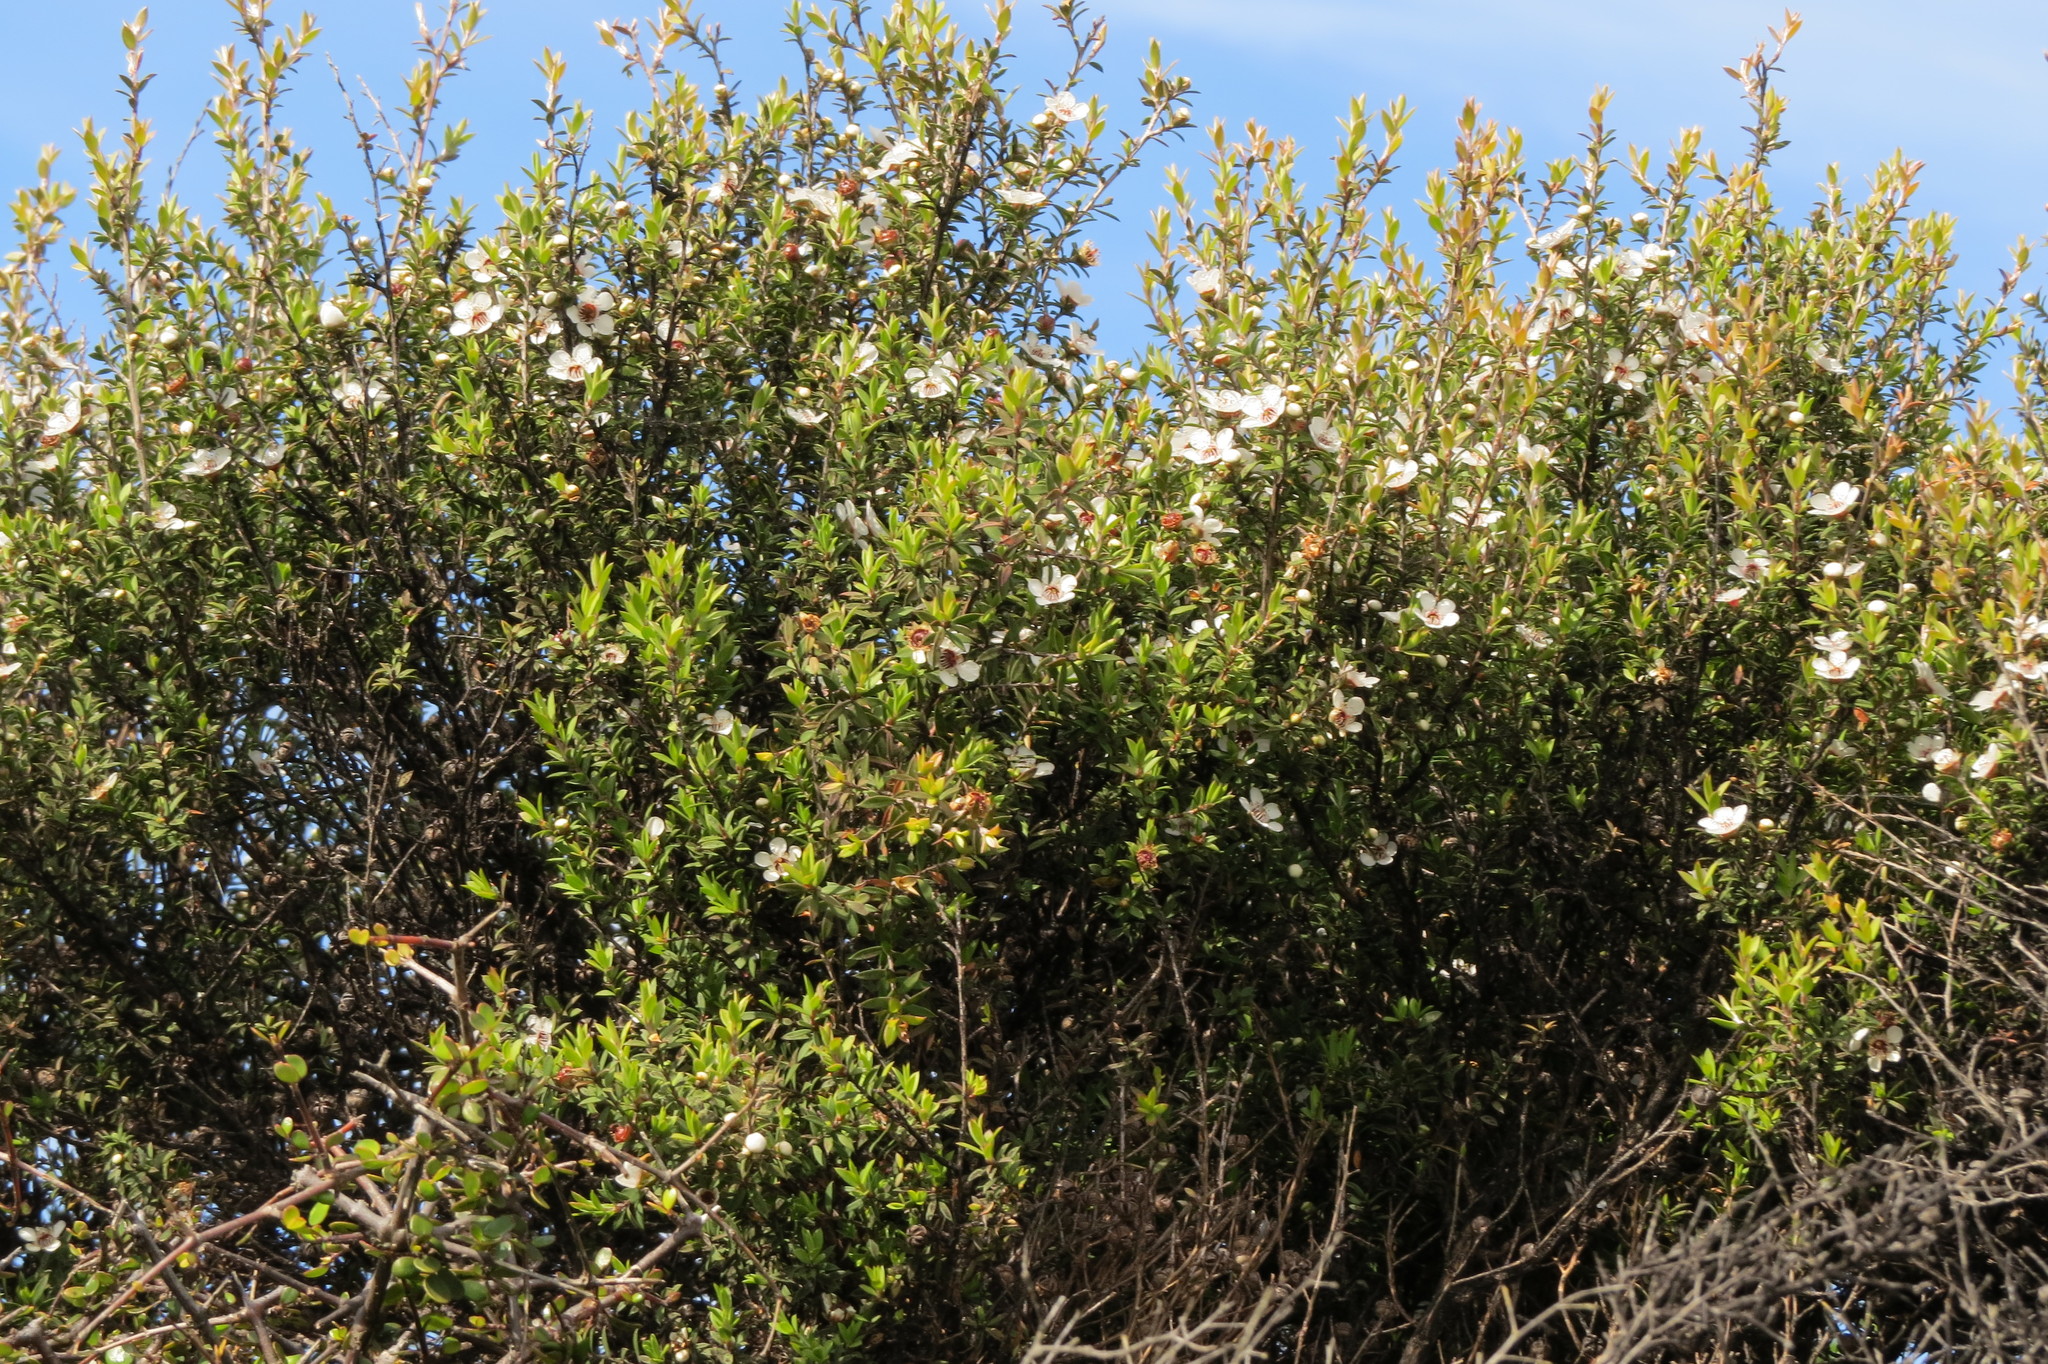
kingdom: Plantae
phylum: Tracheophyta
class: Magnoliopsida
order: Myrtales
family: Myrtaceae
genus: Leptospermum
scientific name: Leptospermum scoparium
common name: Broom tea-tree
